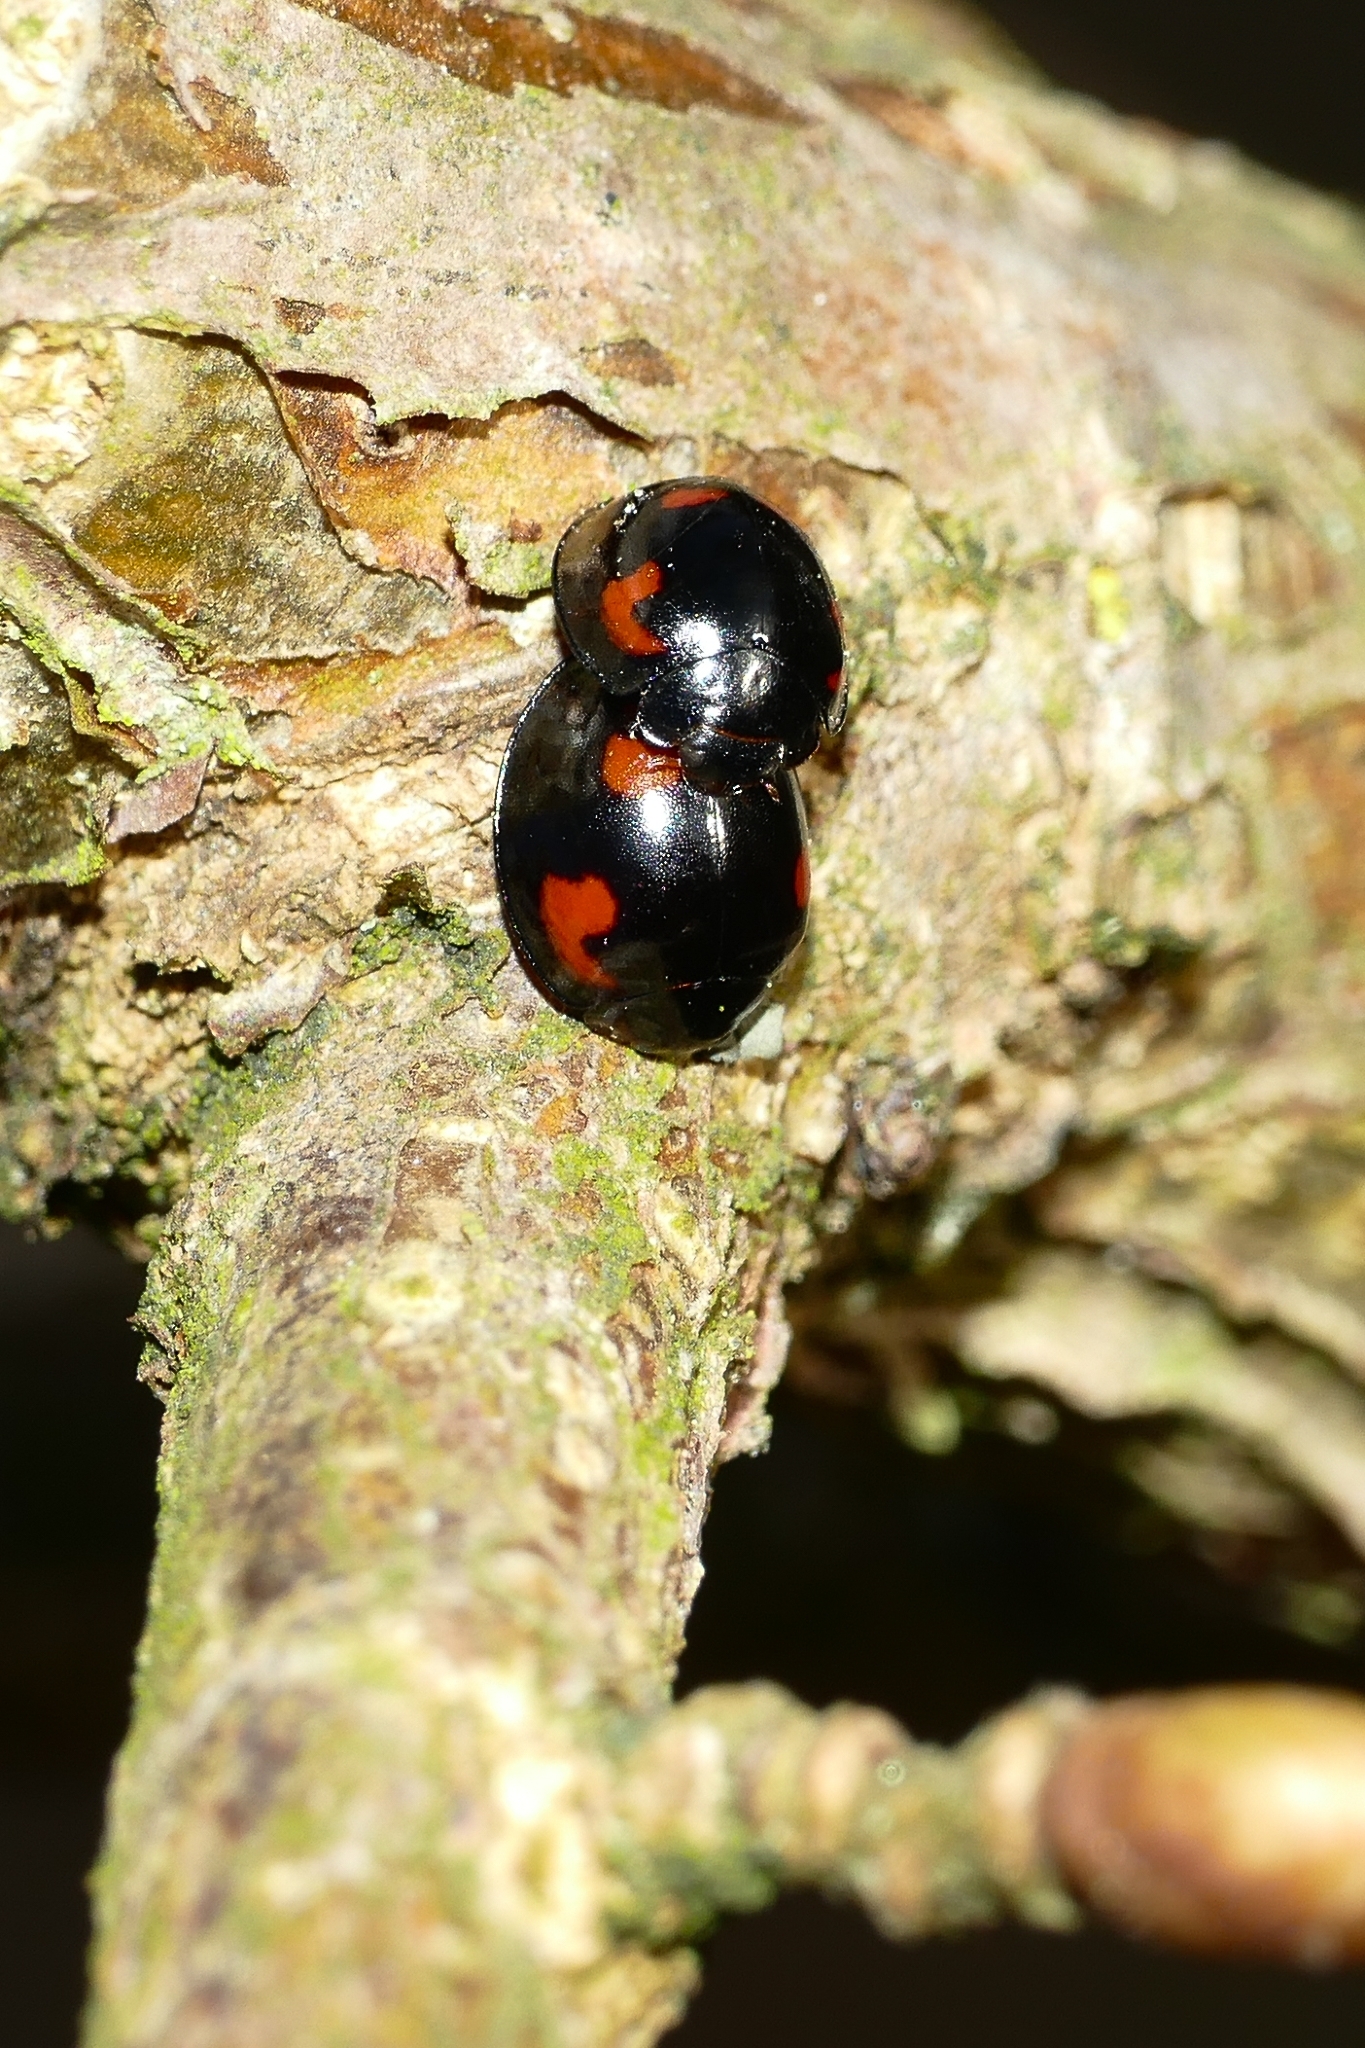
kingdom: Animalia
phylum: Arthropoda
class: Insecta
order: Coleoptera
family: Coccinellidae
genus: Brumus
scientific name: Brumus quadripustulatus
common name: Ladybird beetle
